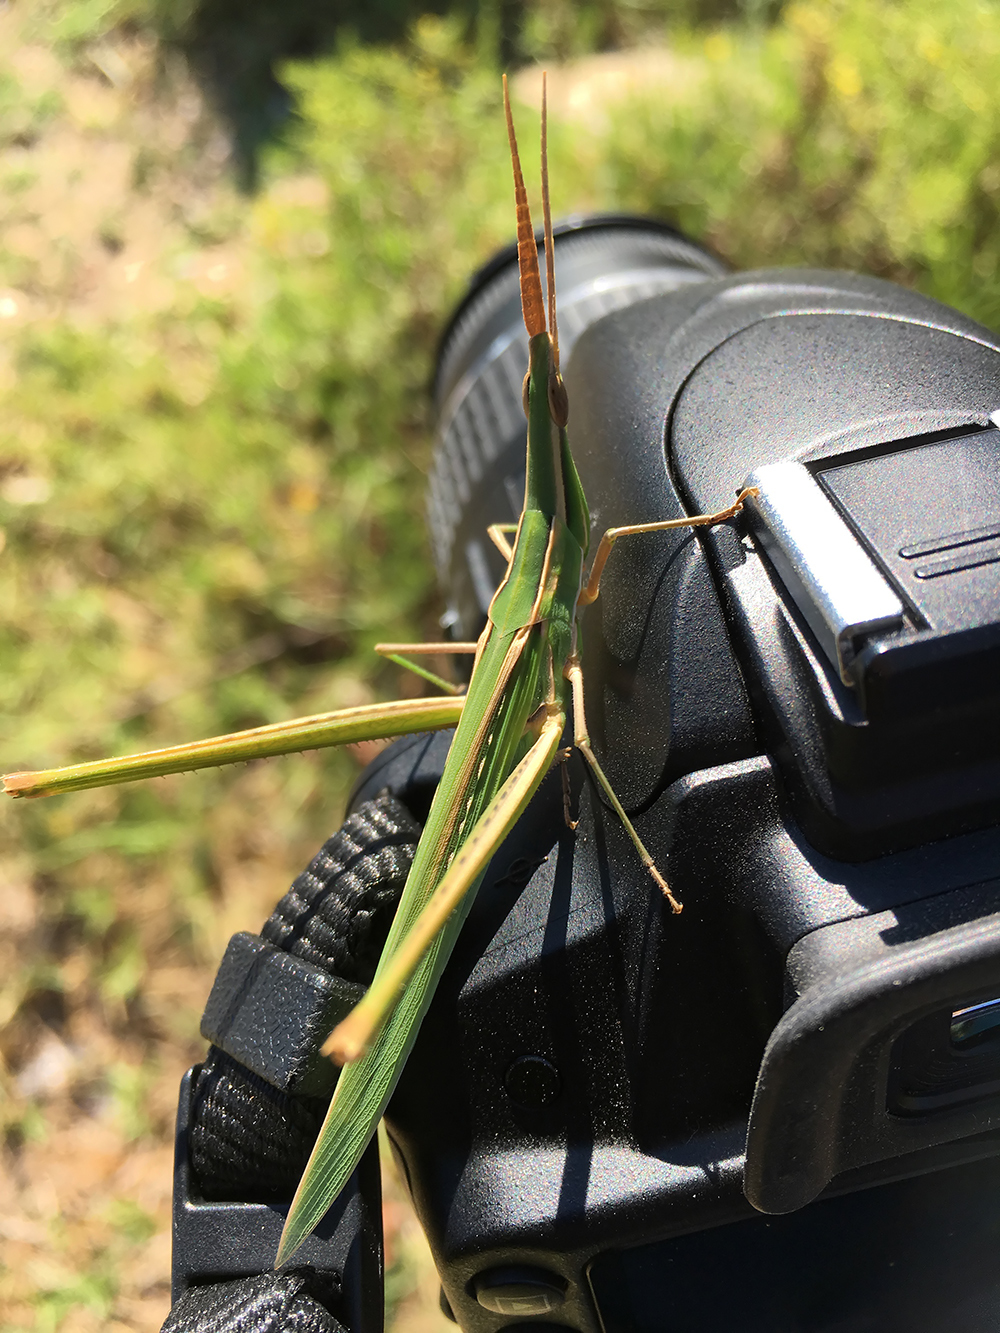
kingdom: Animalia
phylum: Arthropoda
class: Insecta
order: Orthoptera
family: Acrididae
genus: Acrida
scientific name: Acrida ungarica
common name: Common cone-headed grasshopper
